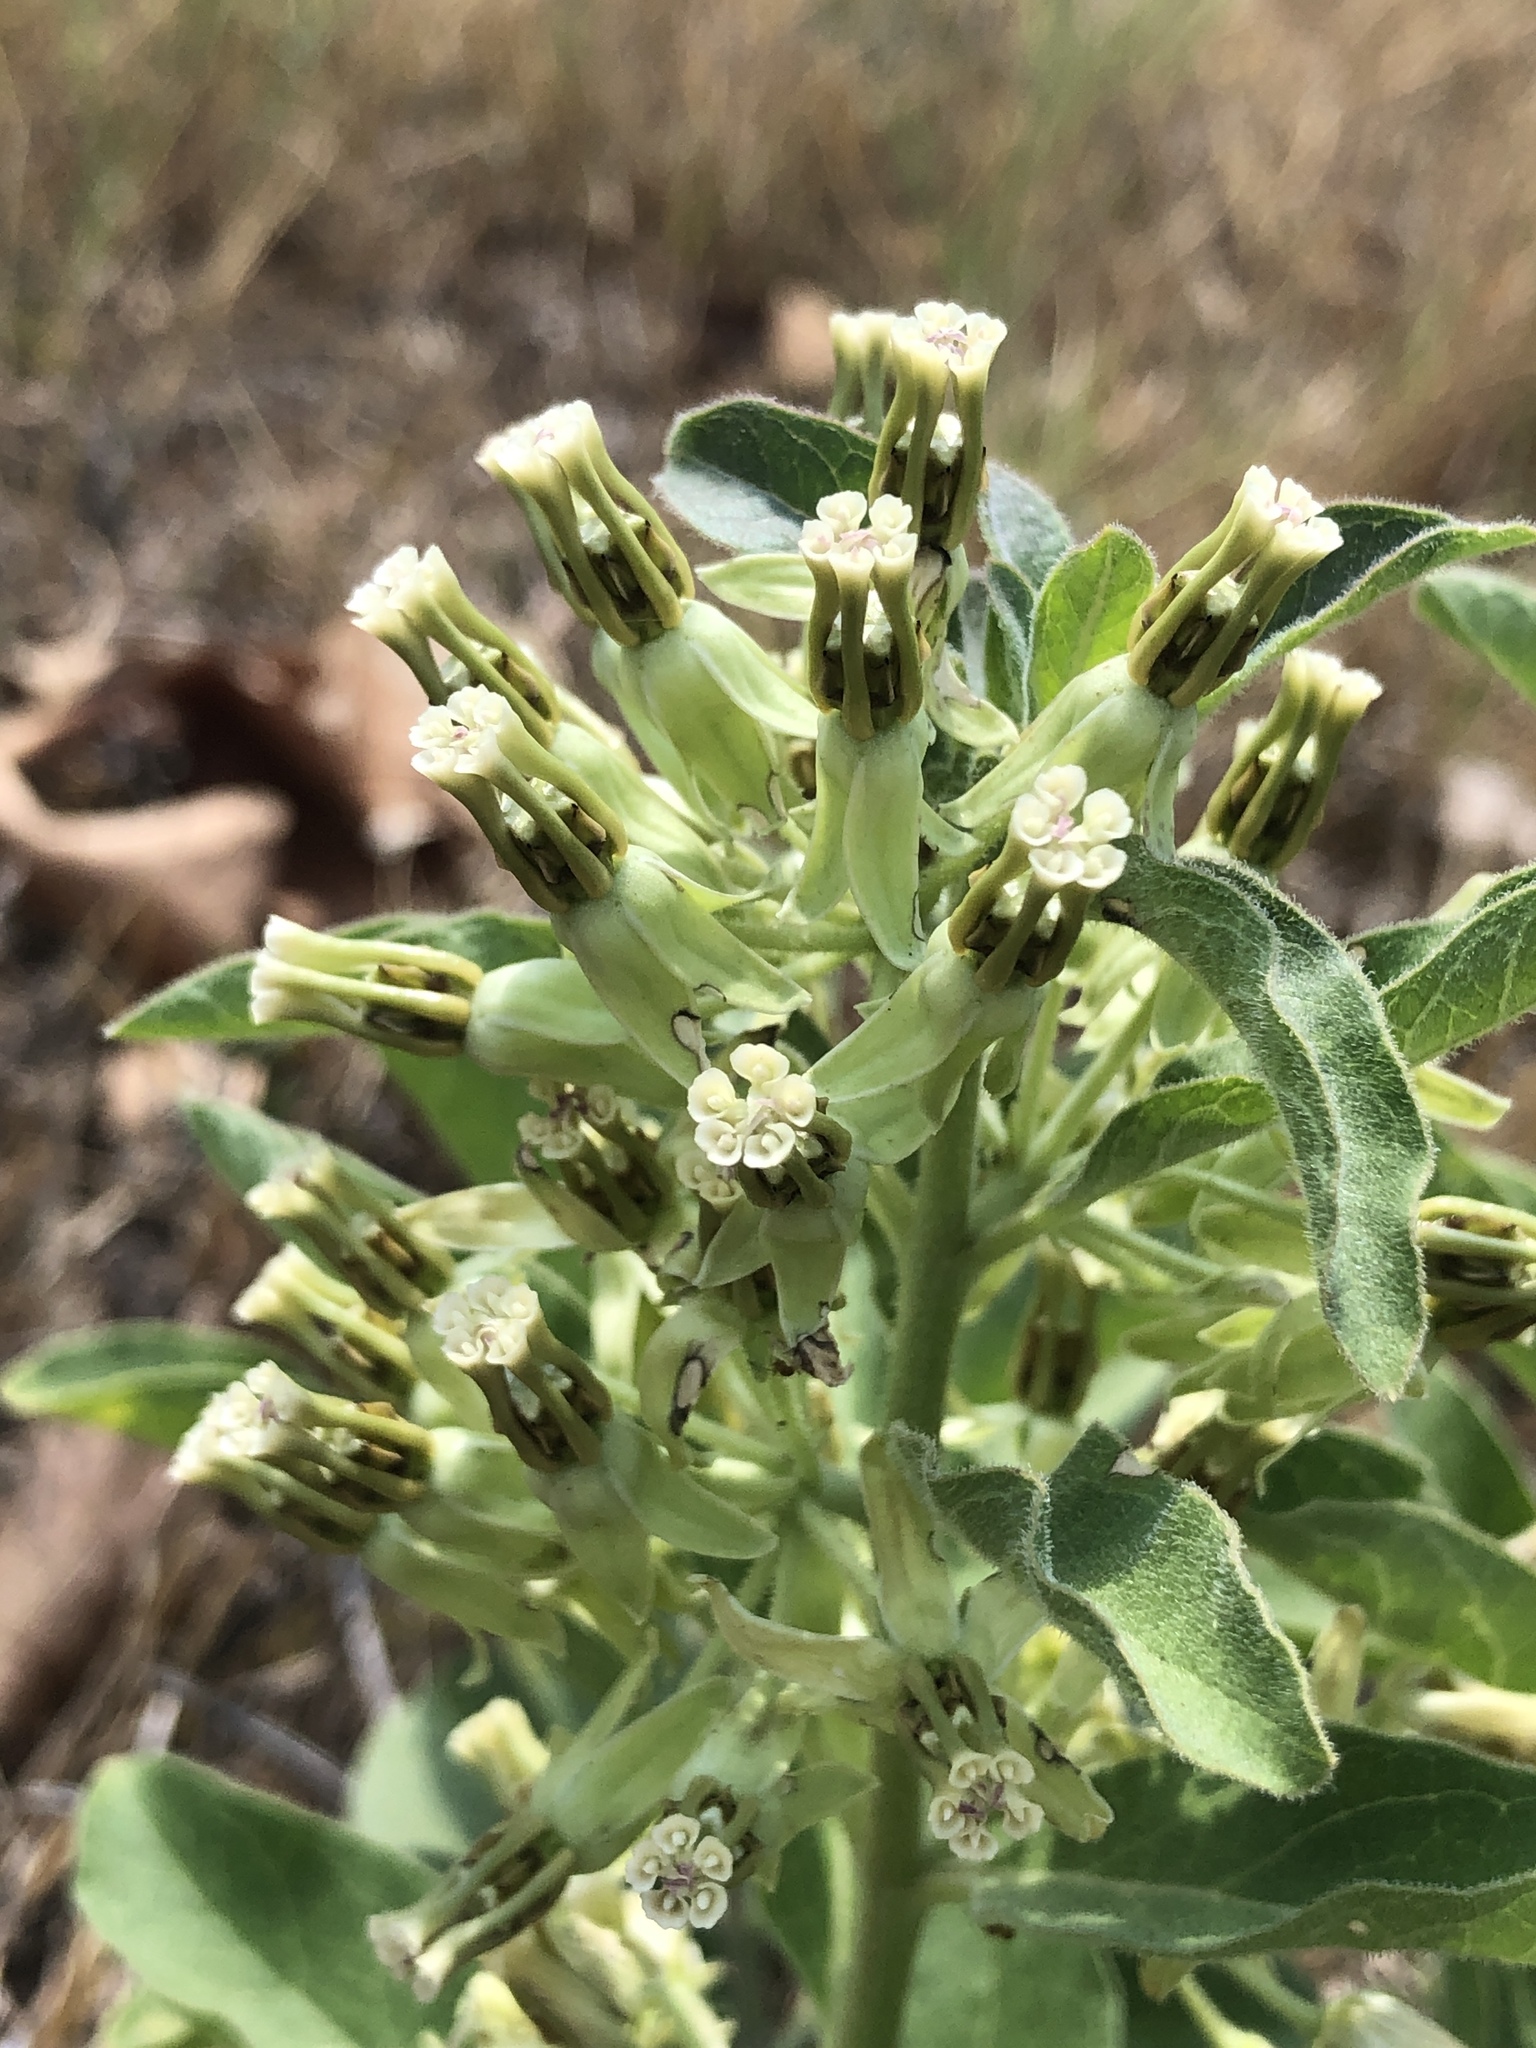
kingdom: Plantae
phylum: Tracheophyta
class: Magnoliopsida
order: Gentianales
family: Apocynaceae
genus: Asclepias
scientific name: Asclepias oenotheroides
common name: Zizotes milkweed
